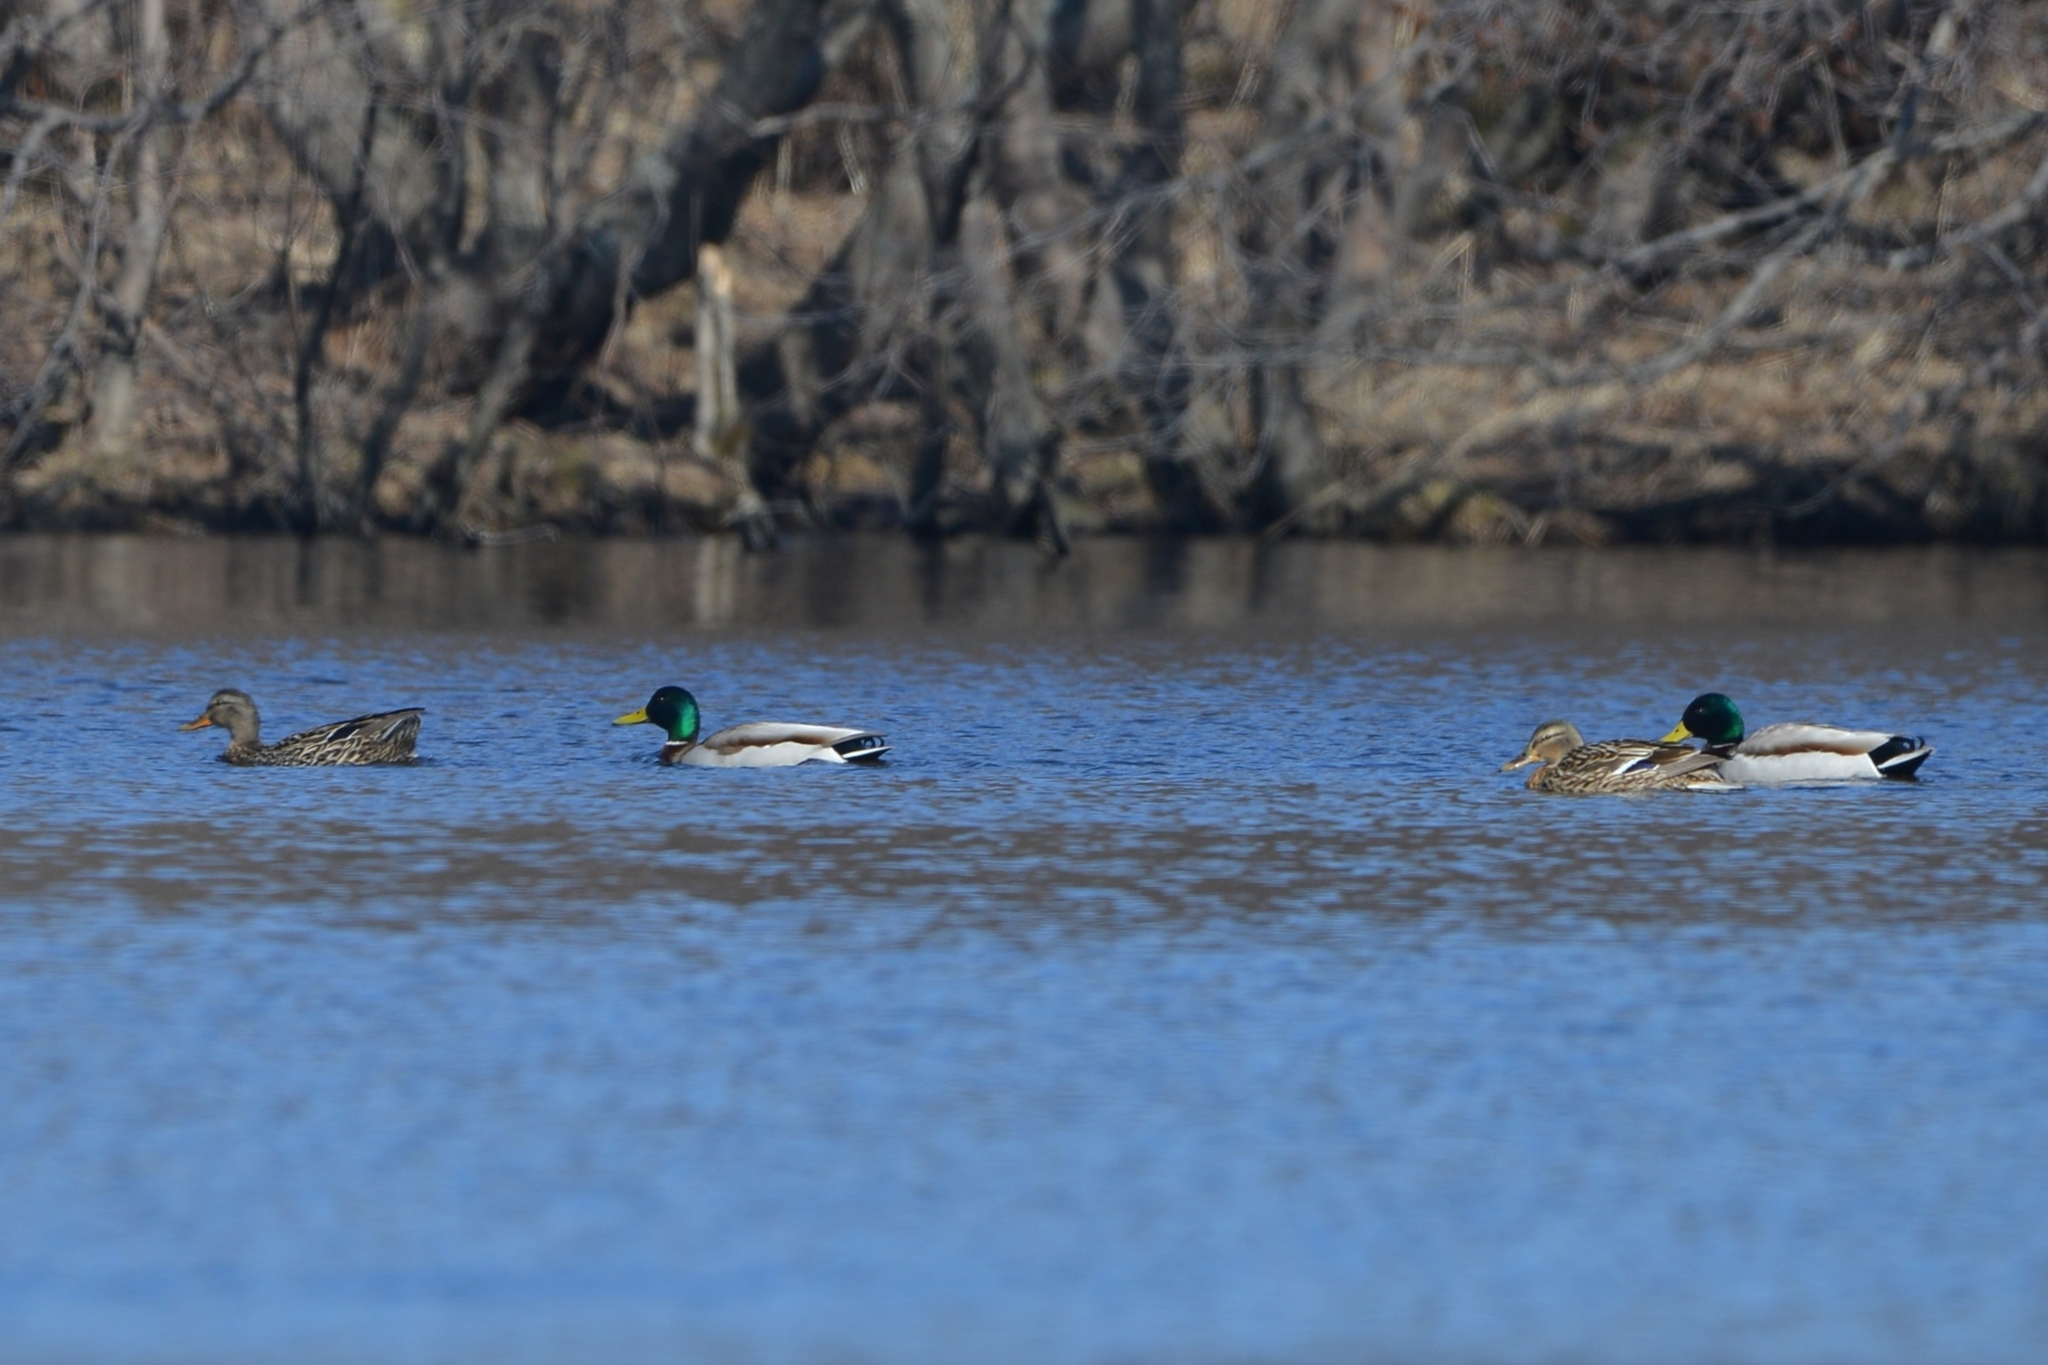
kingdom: Animalia
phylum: Chordata
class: Aves
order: Anseriformes
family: Anatidae
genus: Anas
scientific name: Anas platyrhynchos
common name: Mallard
